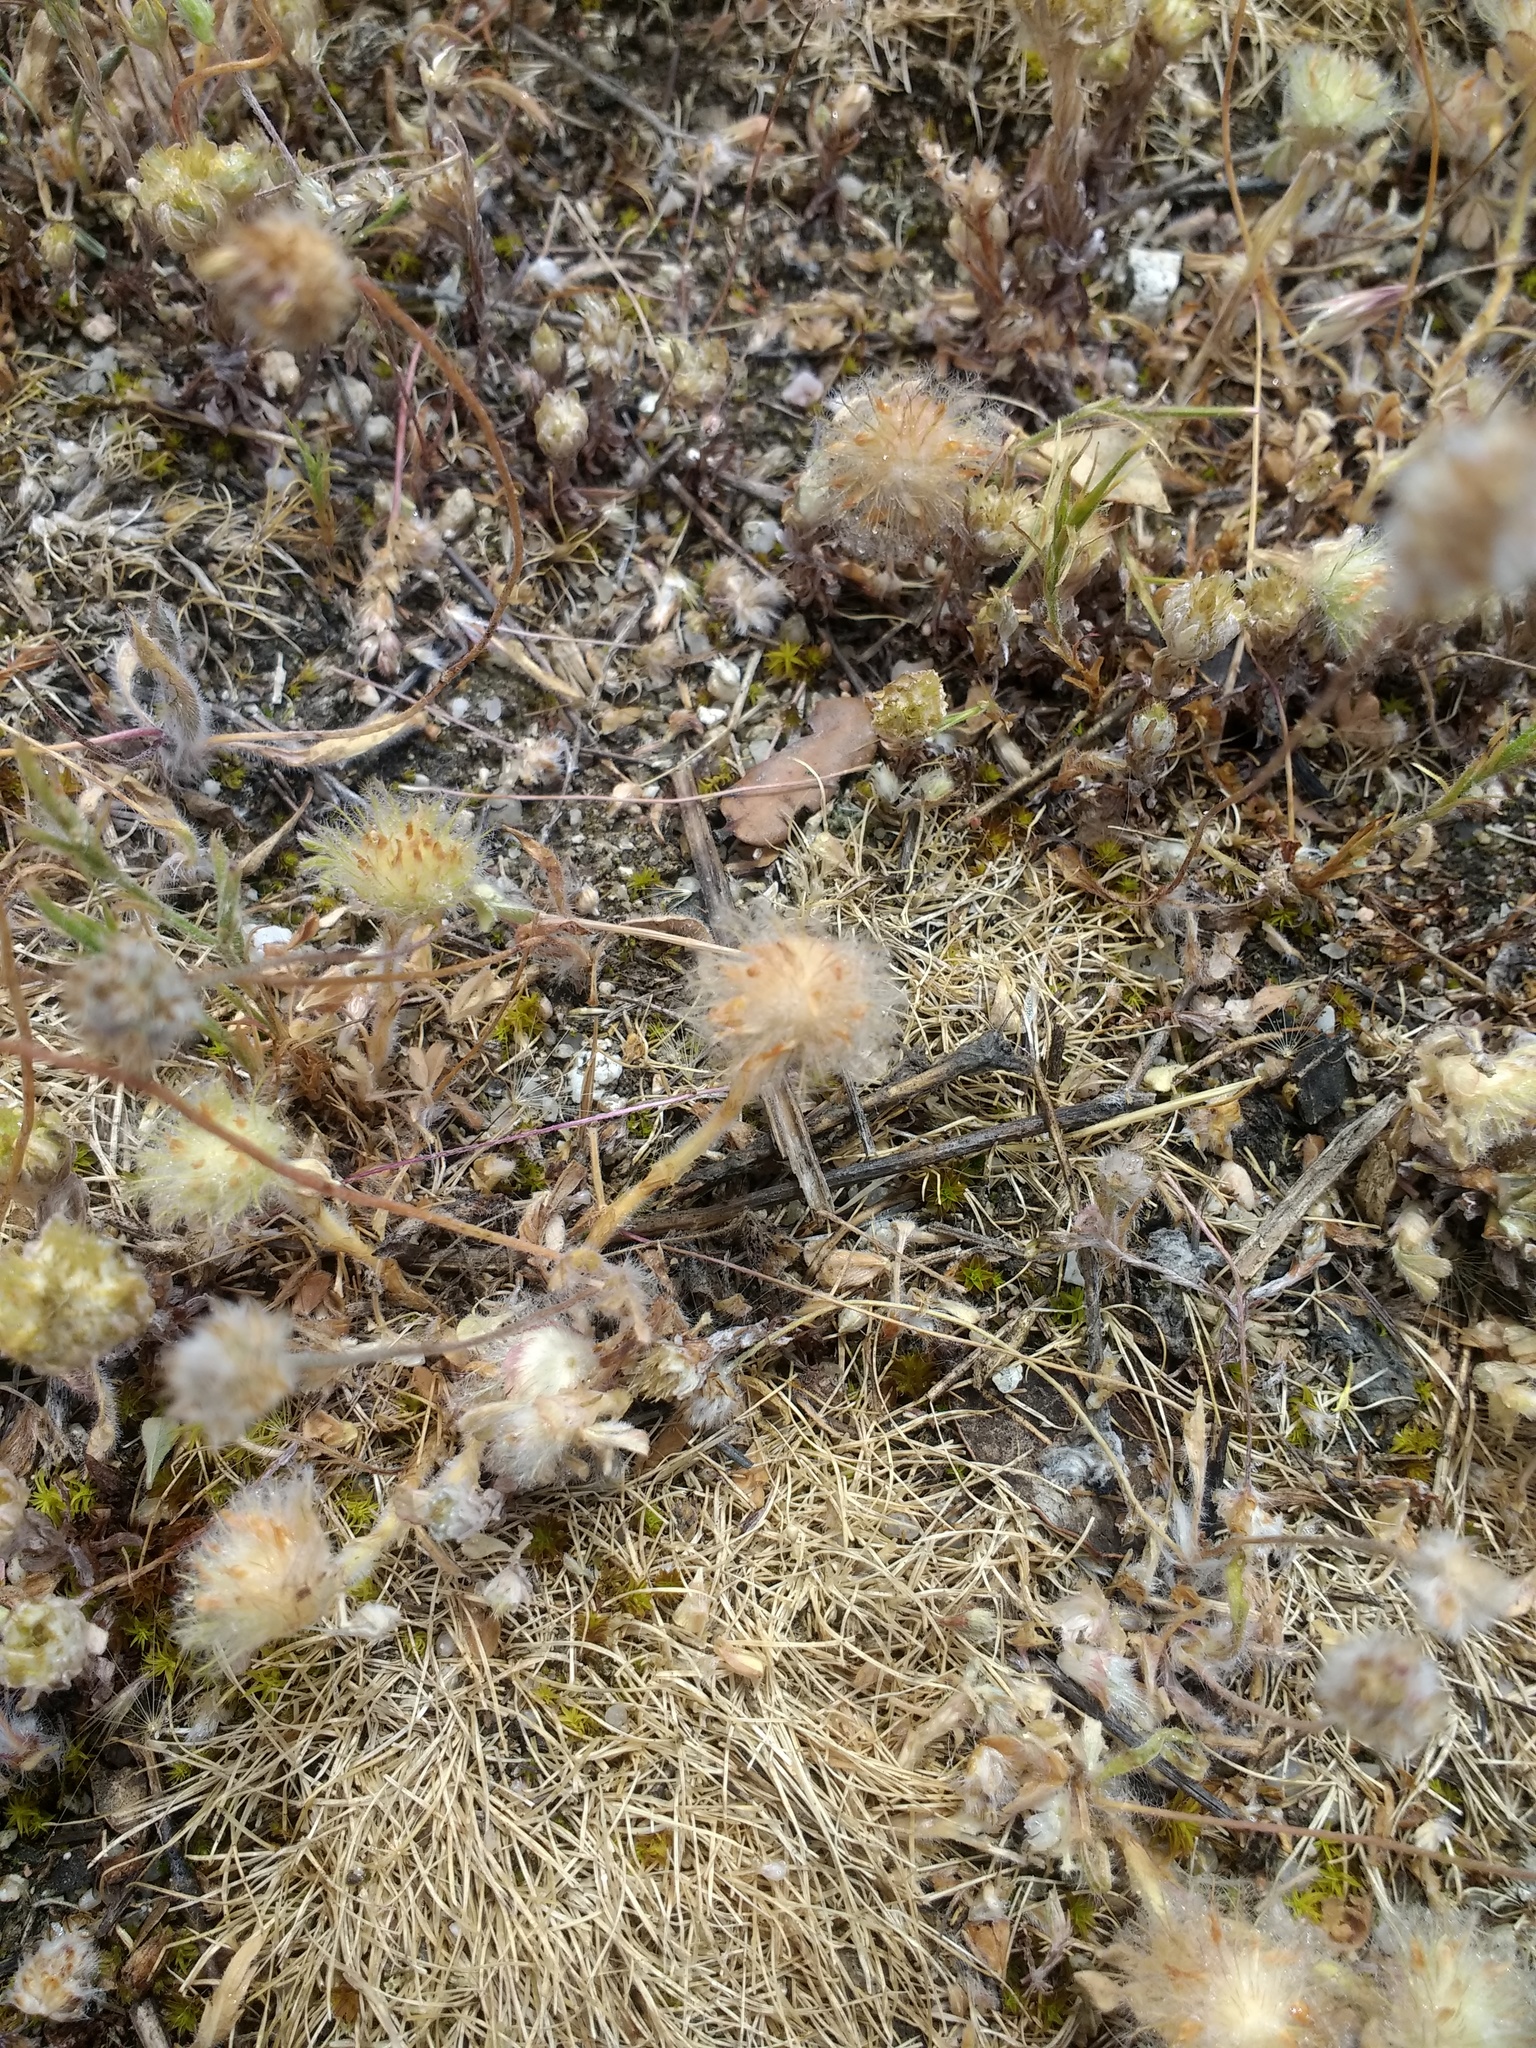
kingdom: Plantae
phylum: Tracheophyta
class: Magnoliopsida
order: Fabales
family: Fabaceae
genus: Trifolium
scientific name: Trifolium cherleri
